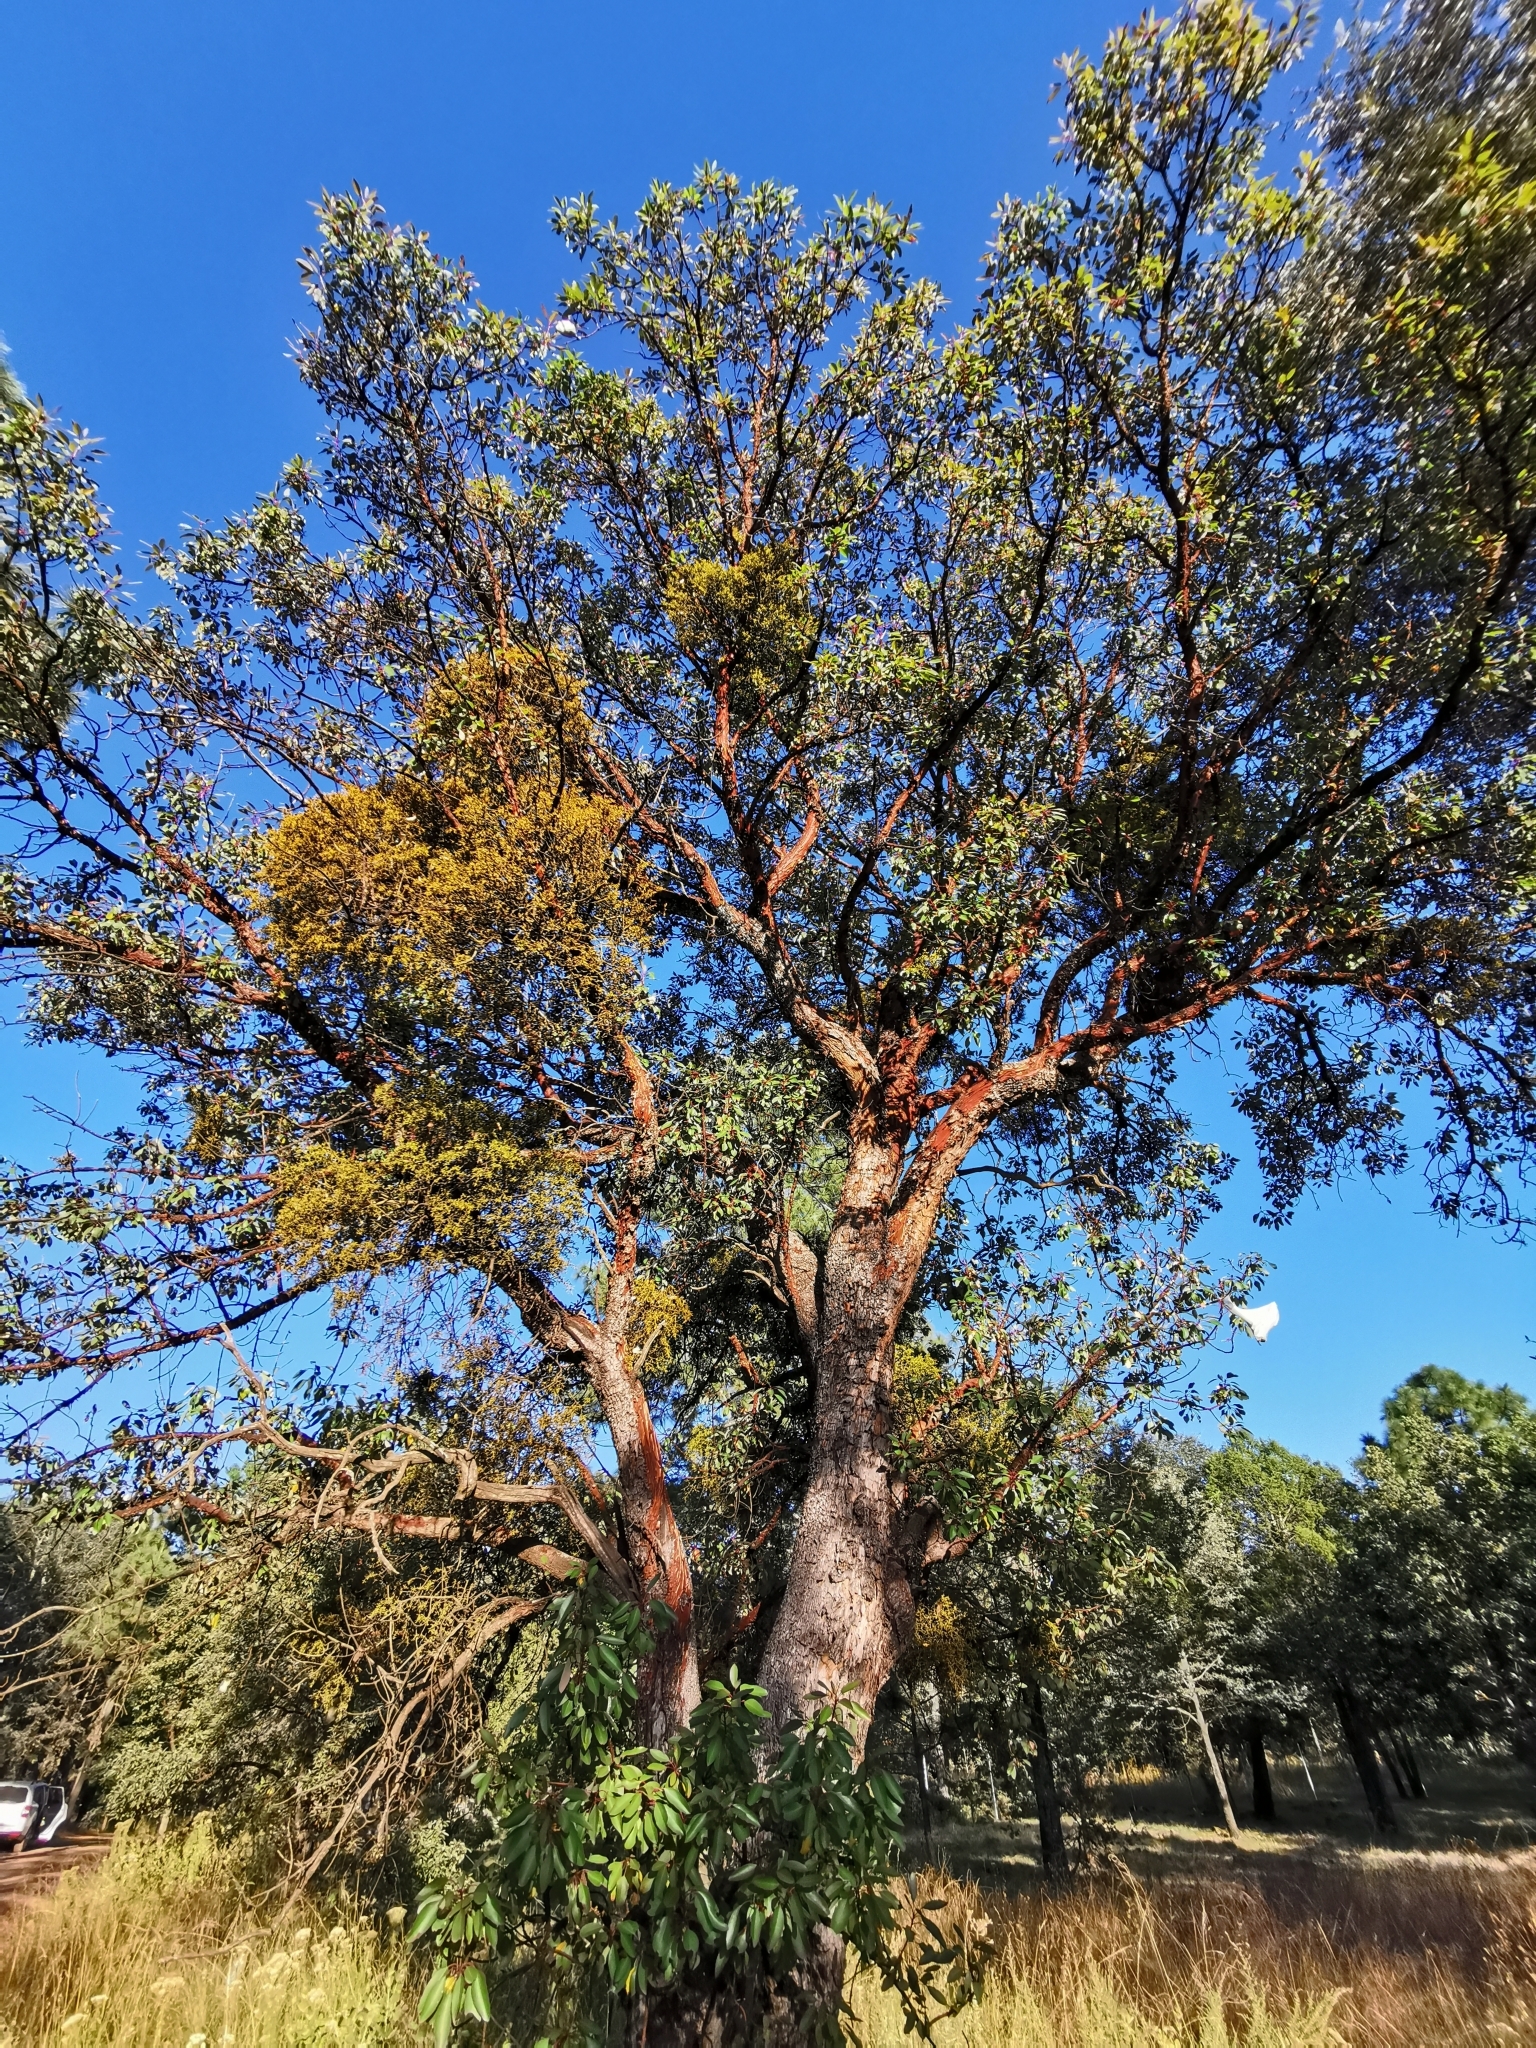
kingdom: Plantae
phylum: Tracheophyta
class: Magnoliopsida
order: Ericales
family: Ericaceae
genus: Arbutus
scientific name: Arbutus arizonica
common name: Arizona madrone
